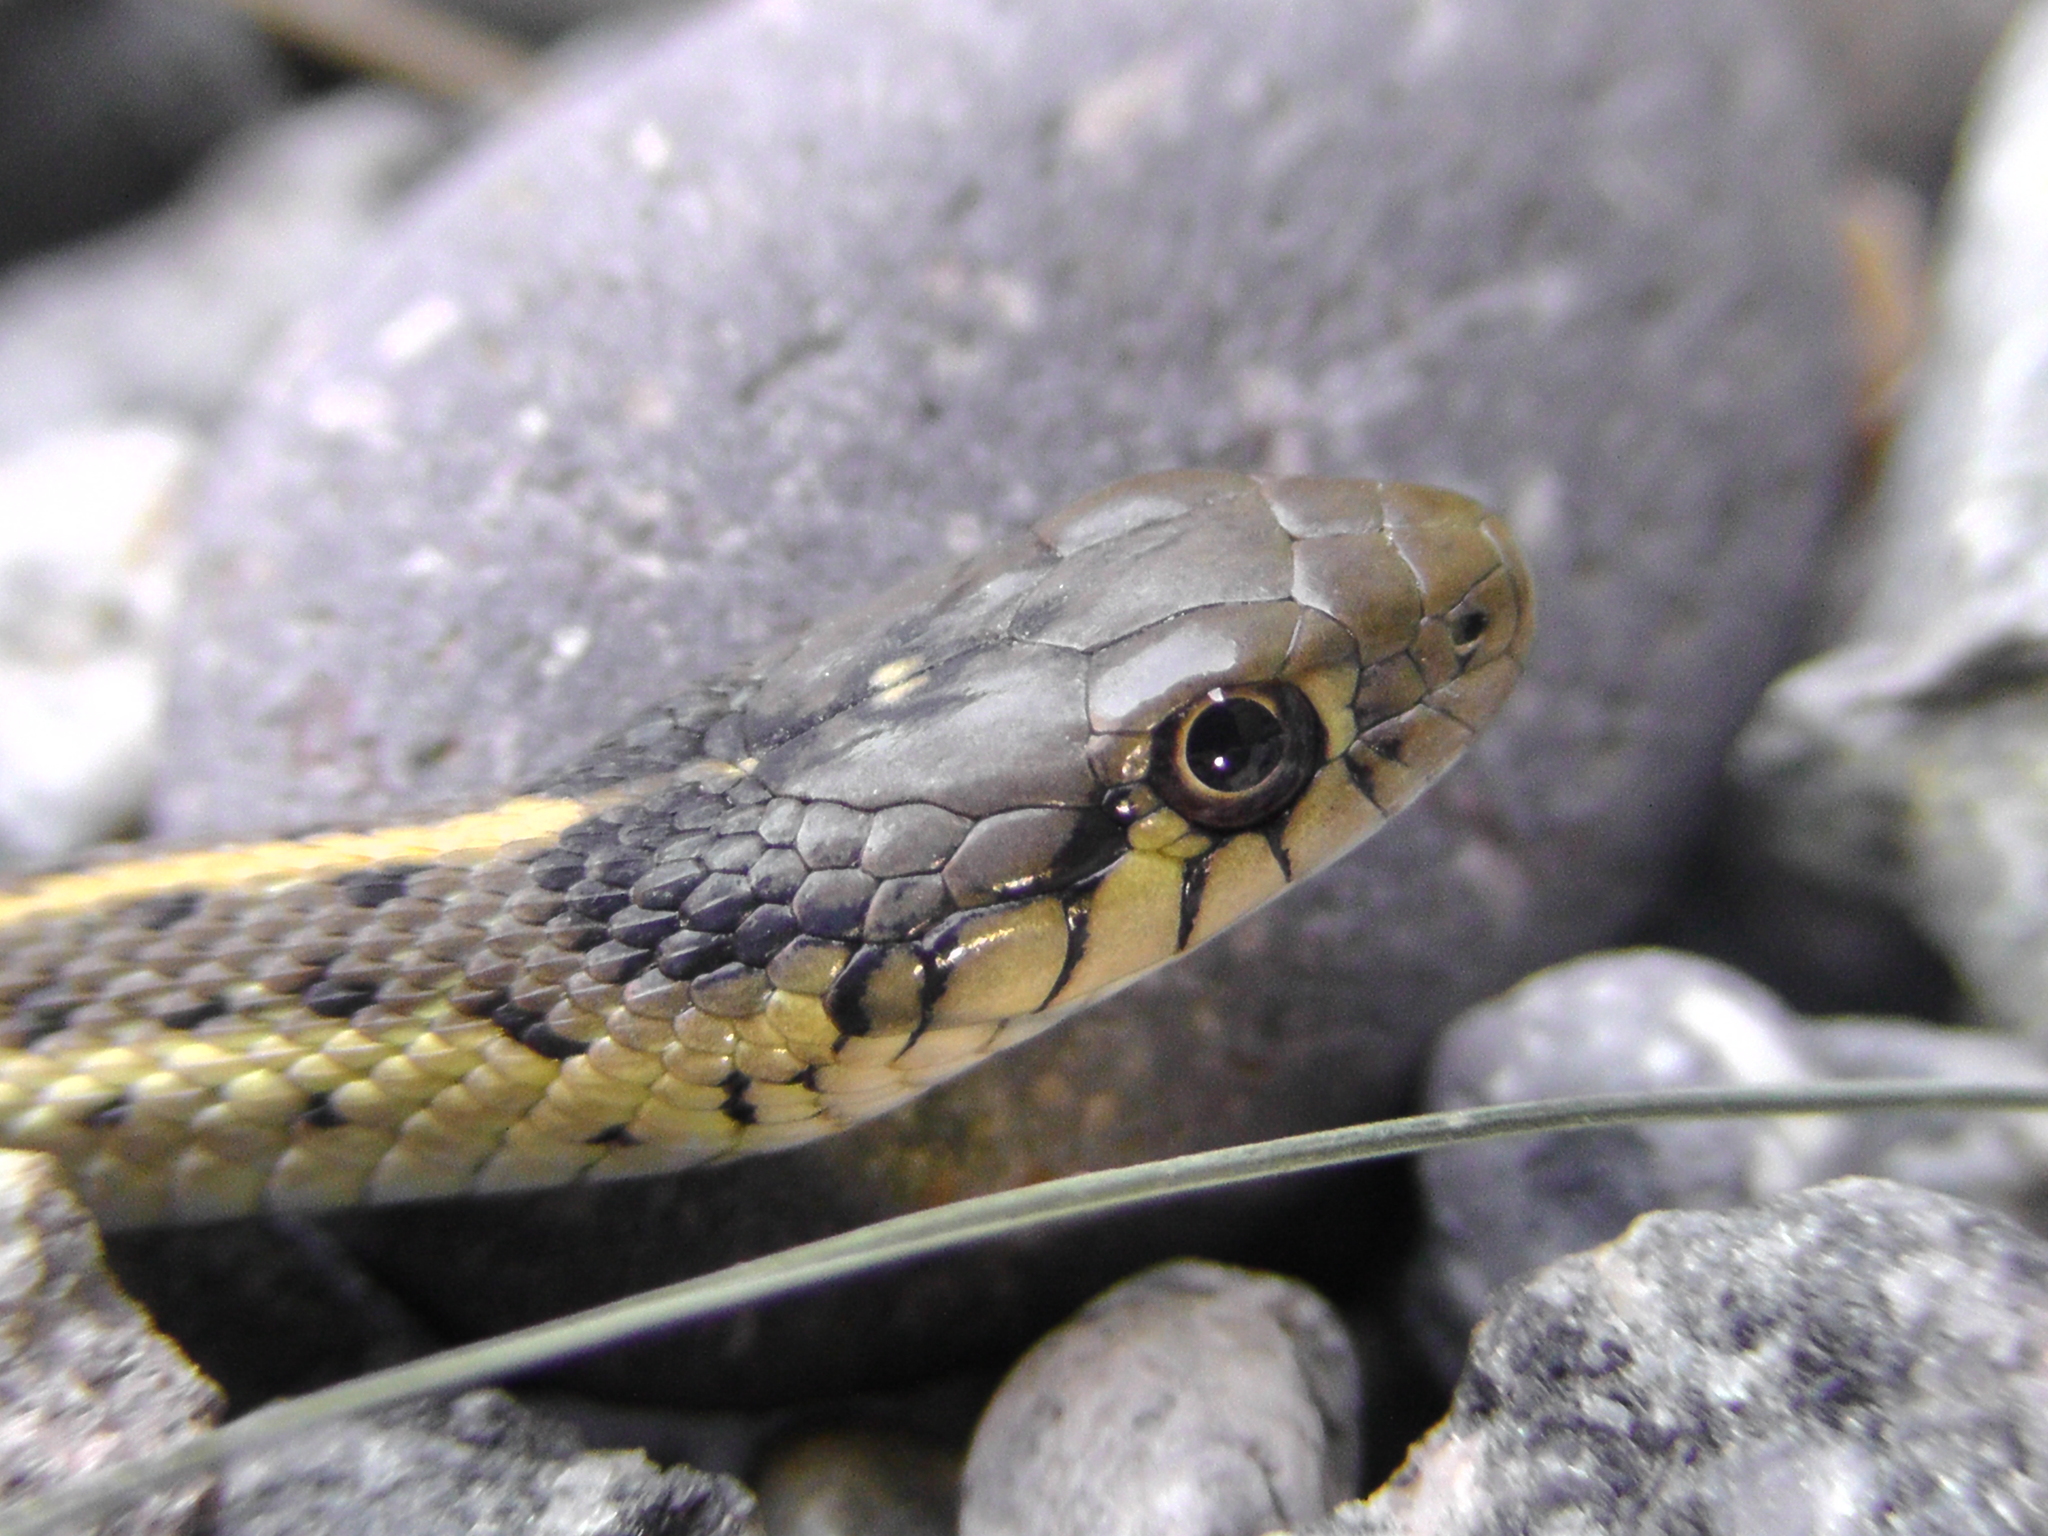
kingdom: Animalia
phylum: Chordata
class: Squamata
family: Colubridae
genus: Thamnophis
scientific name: Thamnophis elegans
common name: Western terrestrial garter snake
